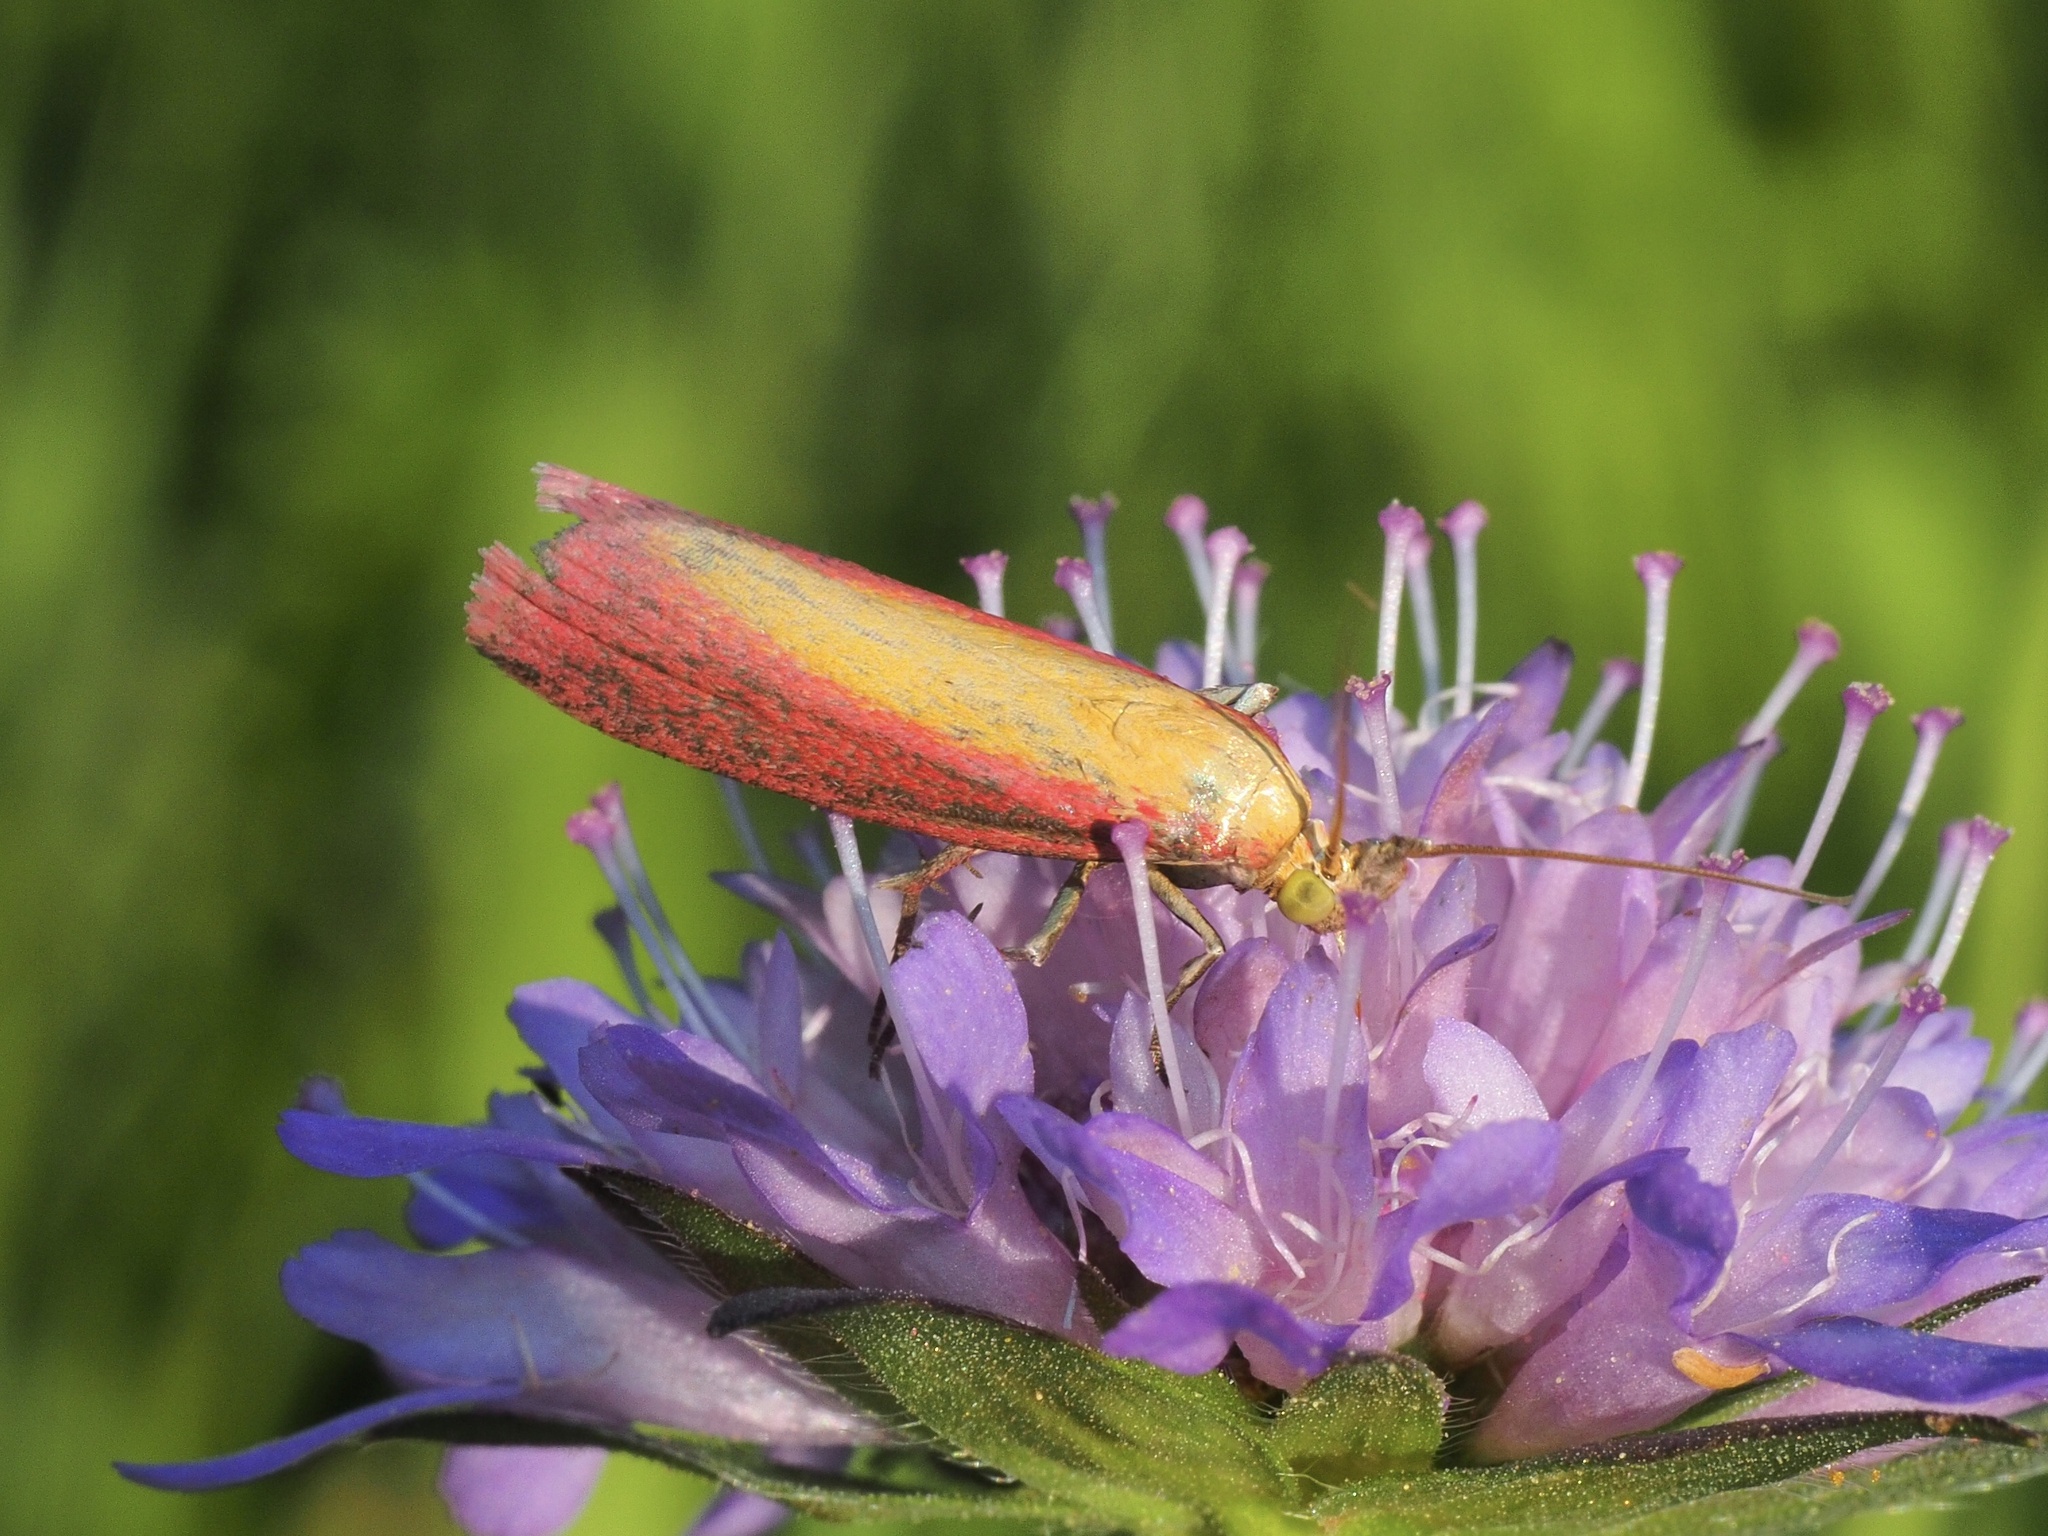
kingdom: Animalia
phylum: Arthropoda
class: Insecta
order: Lepidoptera
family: Pyralidae
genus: Oncocera
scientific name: Oncocera semirubella
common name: Rosy-striped knot-horn
